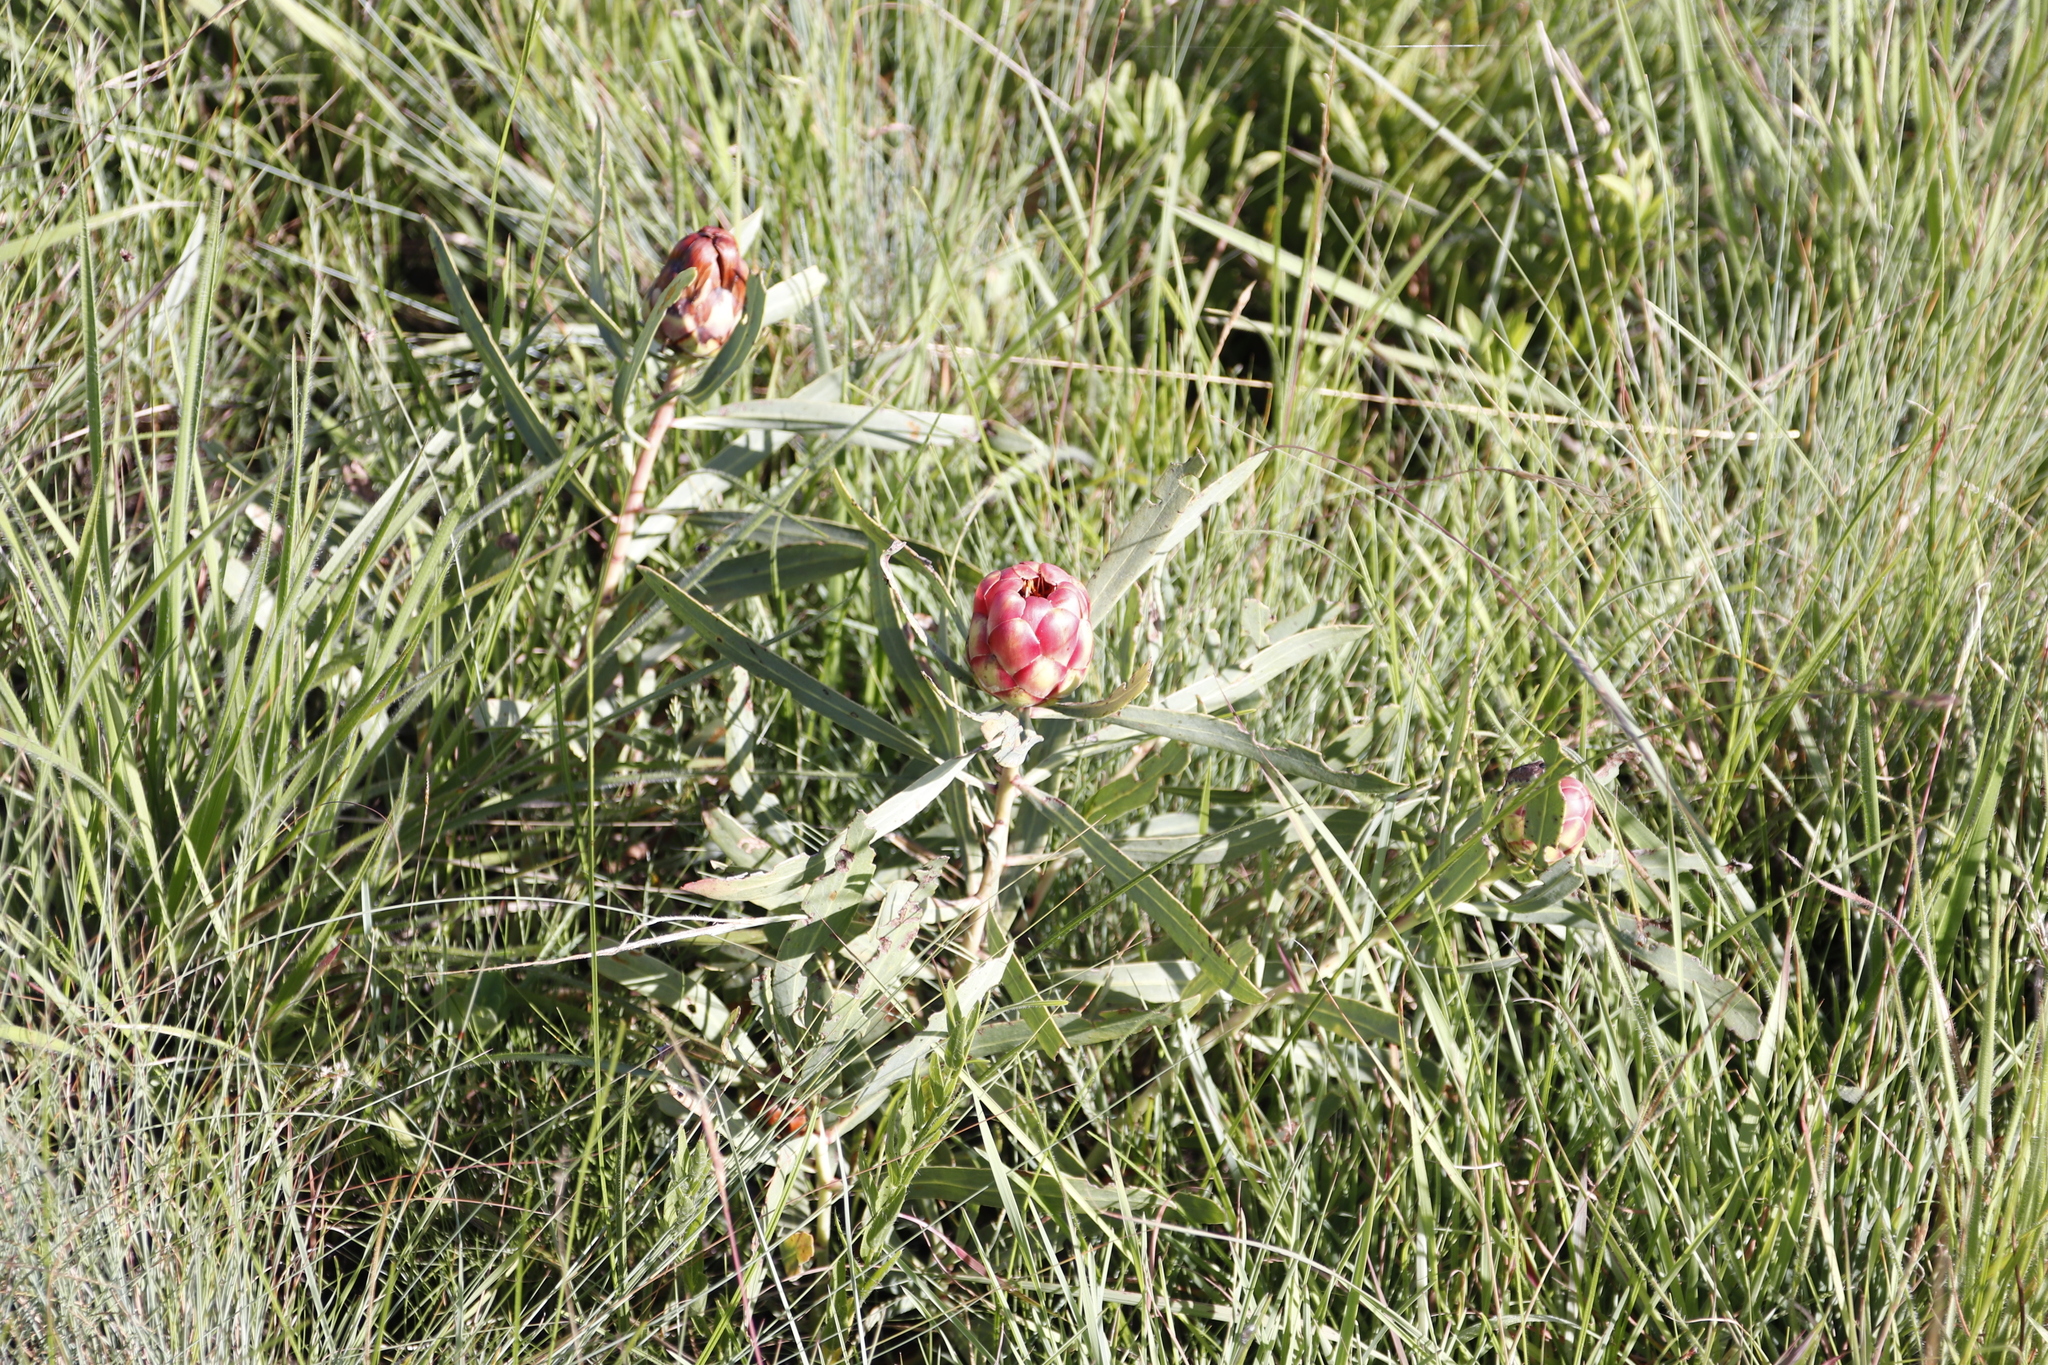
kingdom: Plantae
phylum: Tracheophyta
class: Magnoliopsida
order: Proteales
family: Proteaceae
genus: Protea
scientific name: Protea simplex
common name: Dwarf grassveld sugarbush
